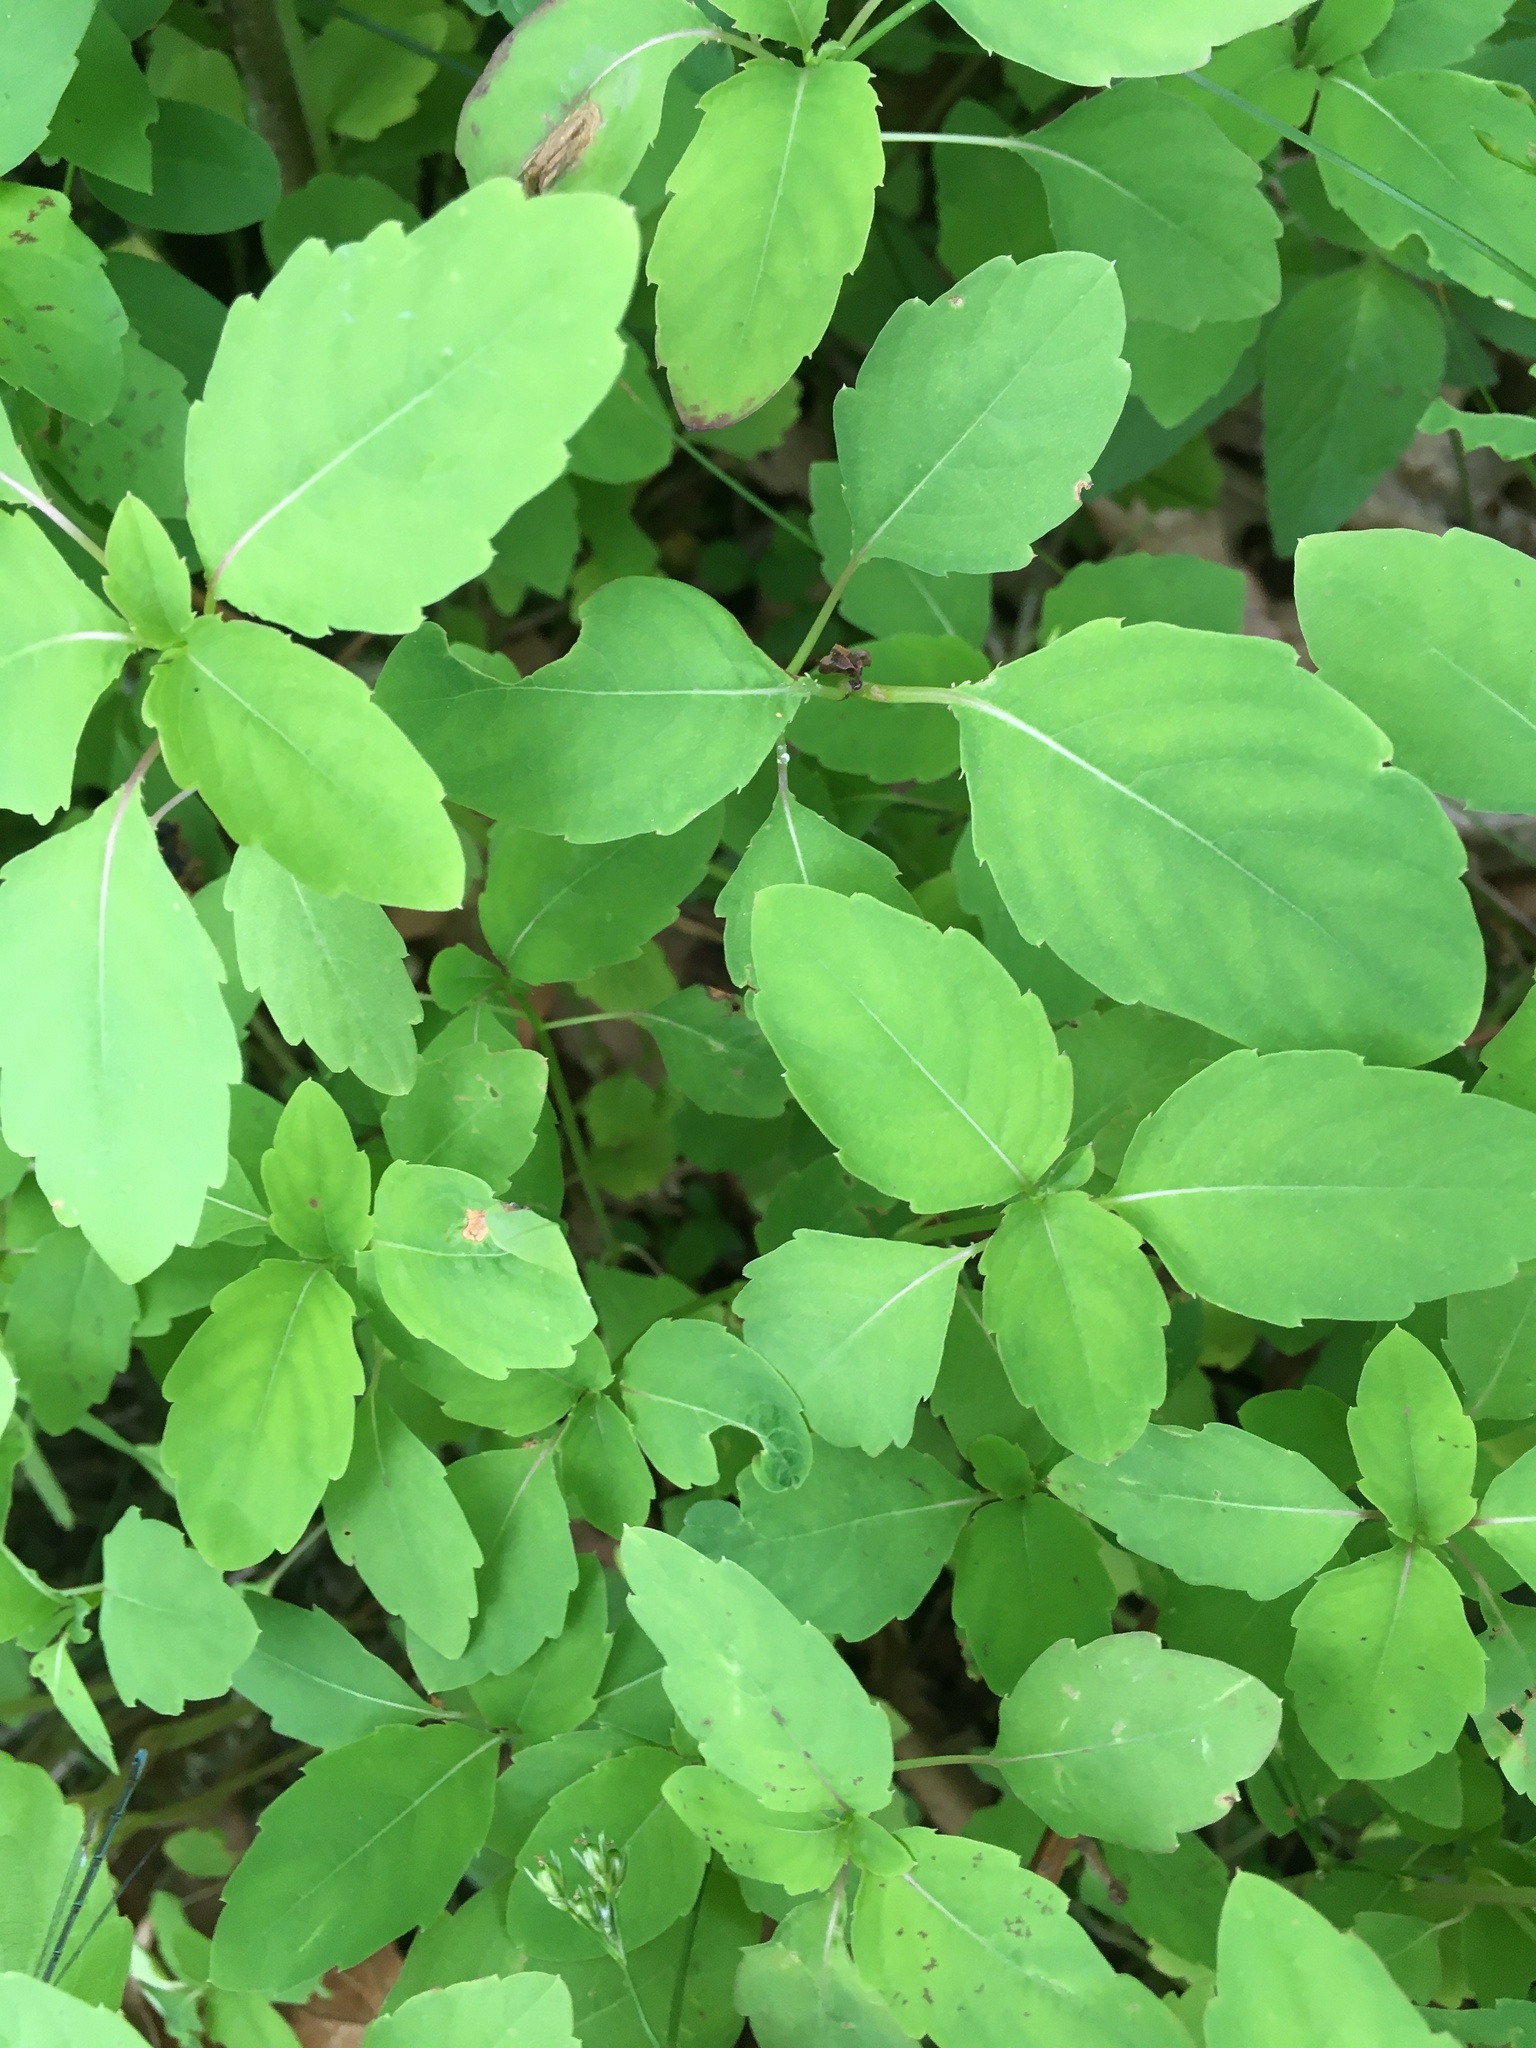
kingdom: Plantae
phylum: Tracheophyta
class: Magnoliopsida
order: Ericales
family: Balsaminaceae
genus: Impatiens
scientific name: Impatiens capensis
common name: Orange balsam
